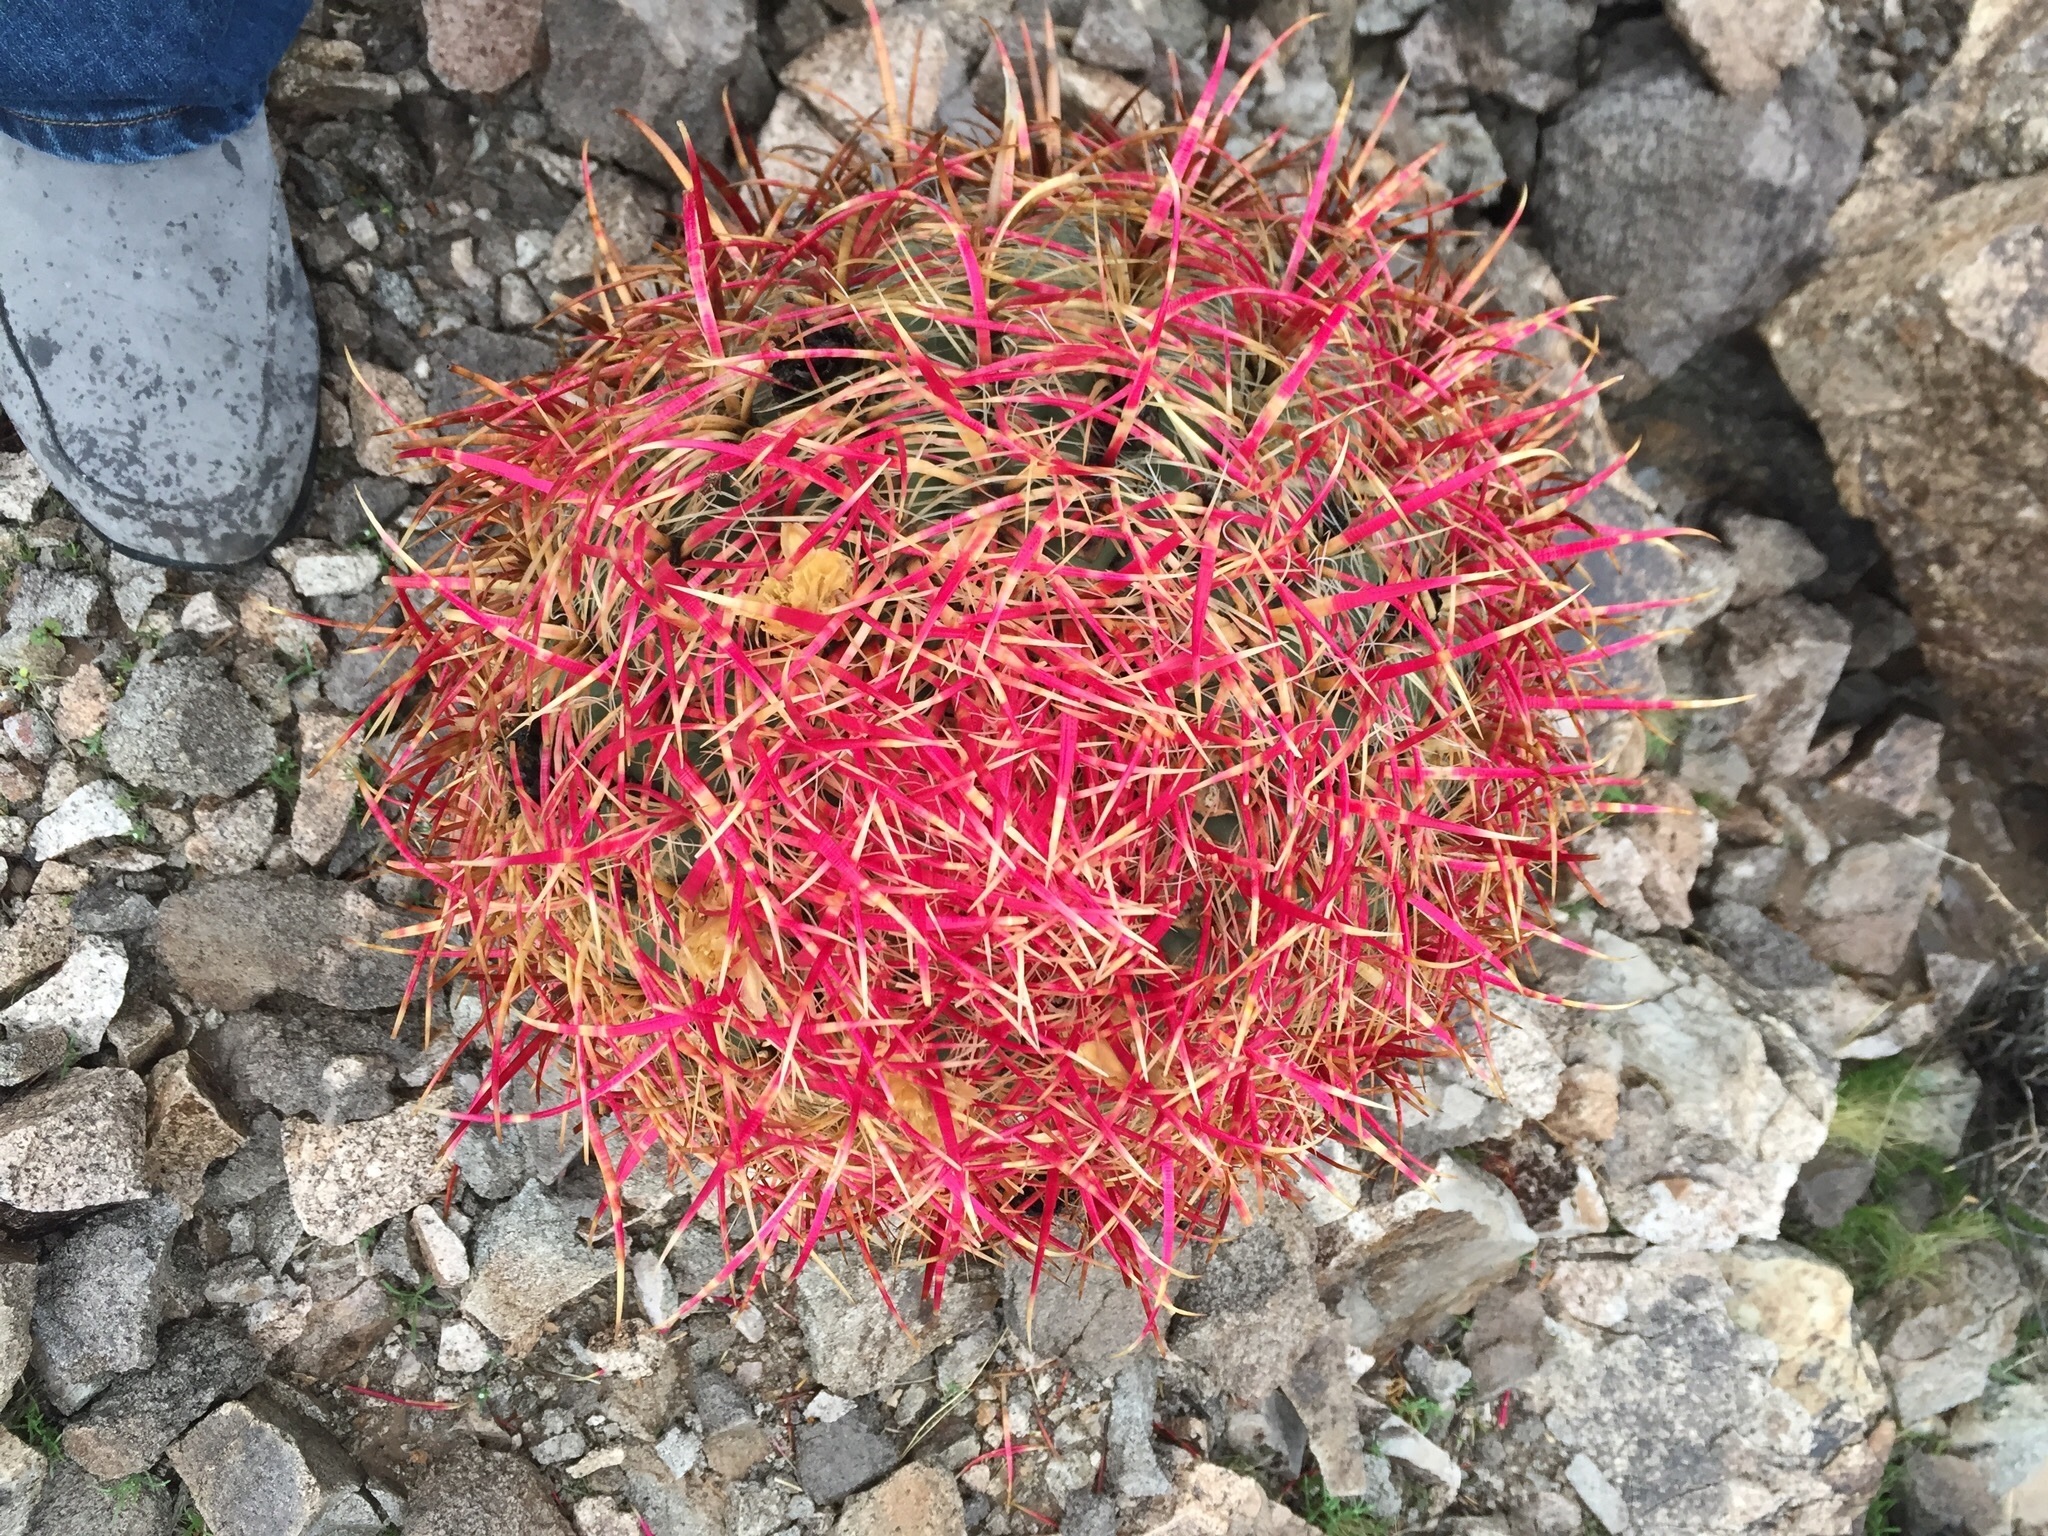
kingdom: Plantae
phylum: Tracheophyta
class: Magnoliopsida
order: Caryophyllales
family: Cactaceae
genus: Ferocactus
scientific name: Ferocactus cylindraceus
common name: California barrel cactus
